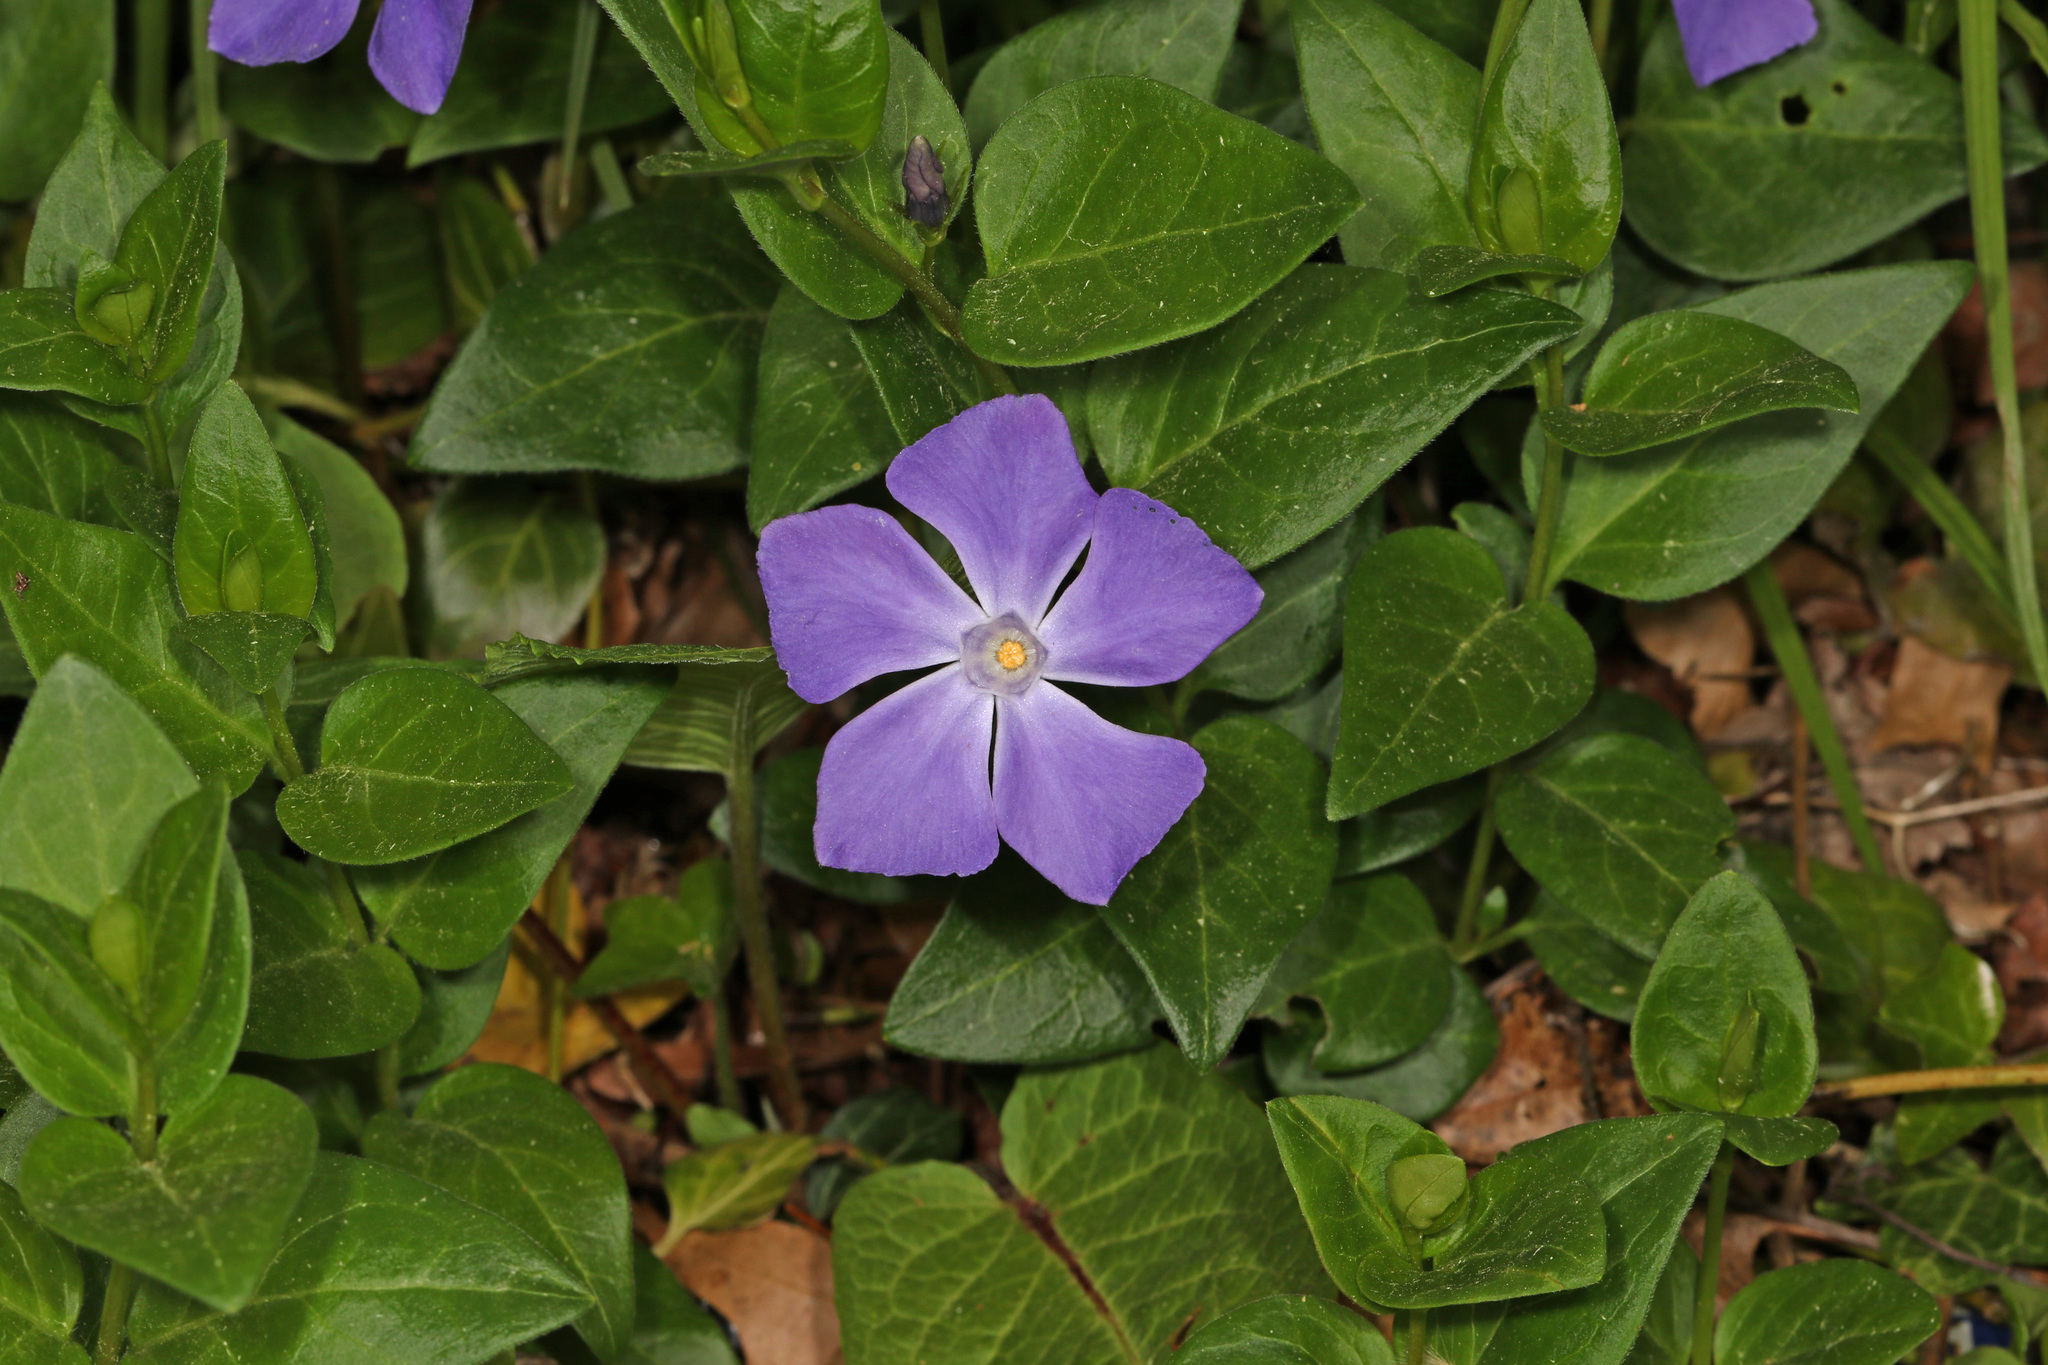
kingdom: Plantae
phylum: Tracheophyta
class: Magnoliopsida
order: Gentianales
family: Apocynaceae
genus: Vinca
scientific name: Vinca major
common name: Greater periwinkle
